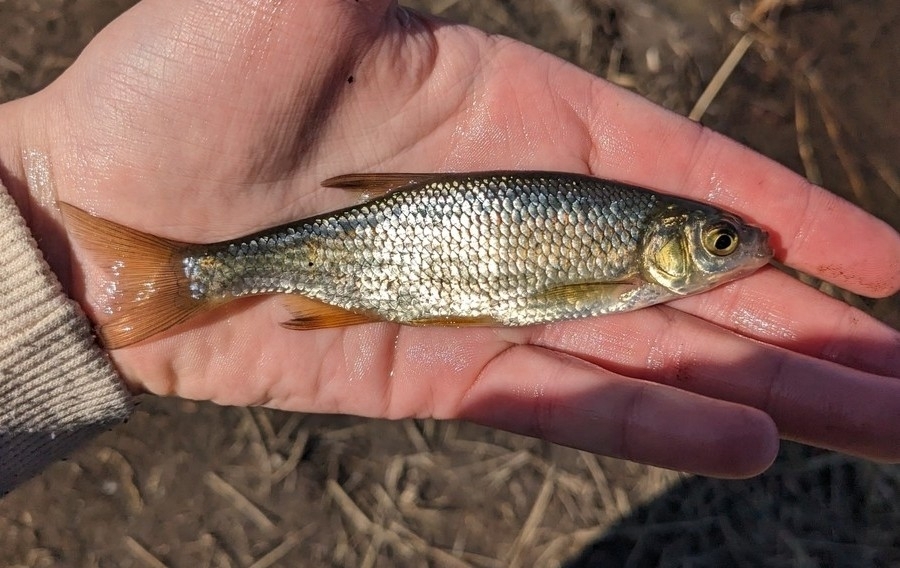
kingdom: Animalia
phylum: Chordata
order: Cypriniformes
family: Cyprinidae
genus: Notemigonus
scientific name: Notemigonus crysoleucas
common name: Golden shiner
